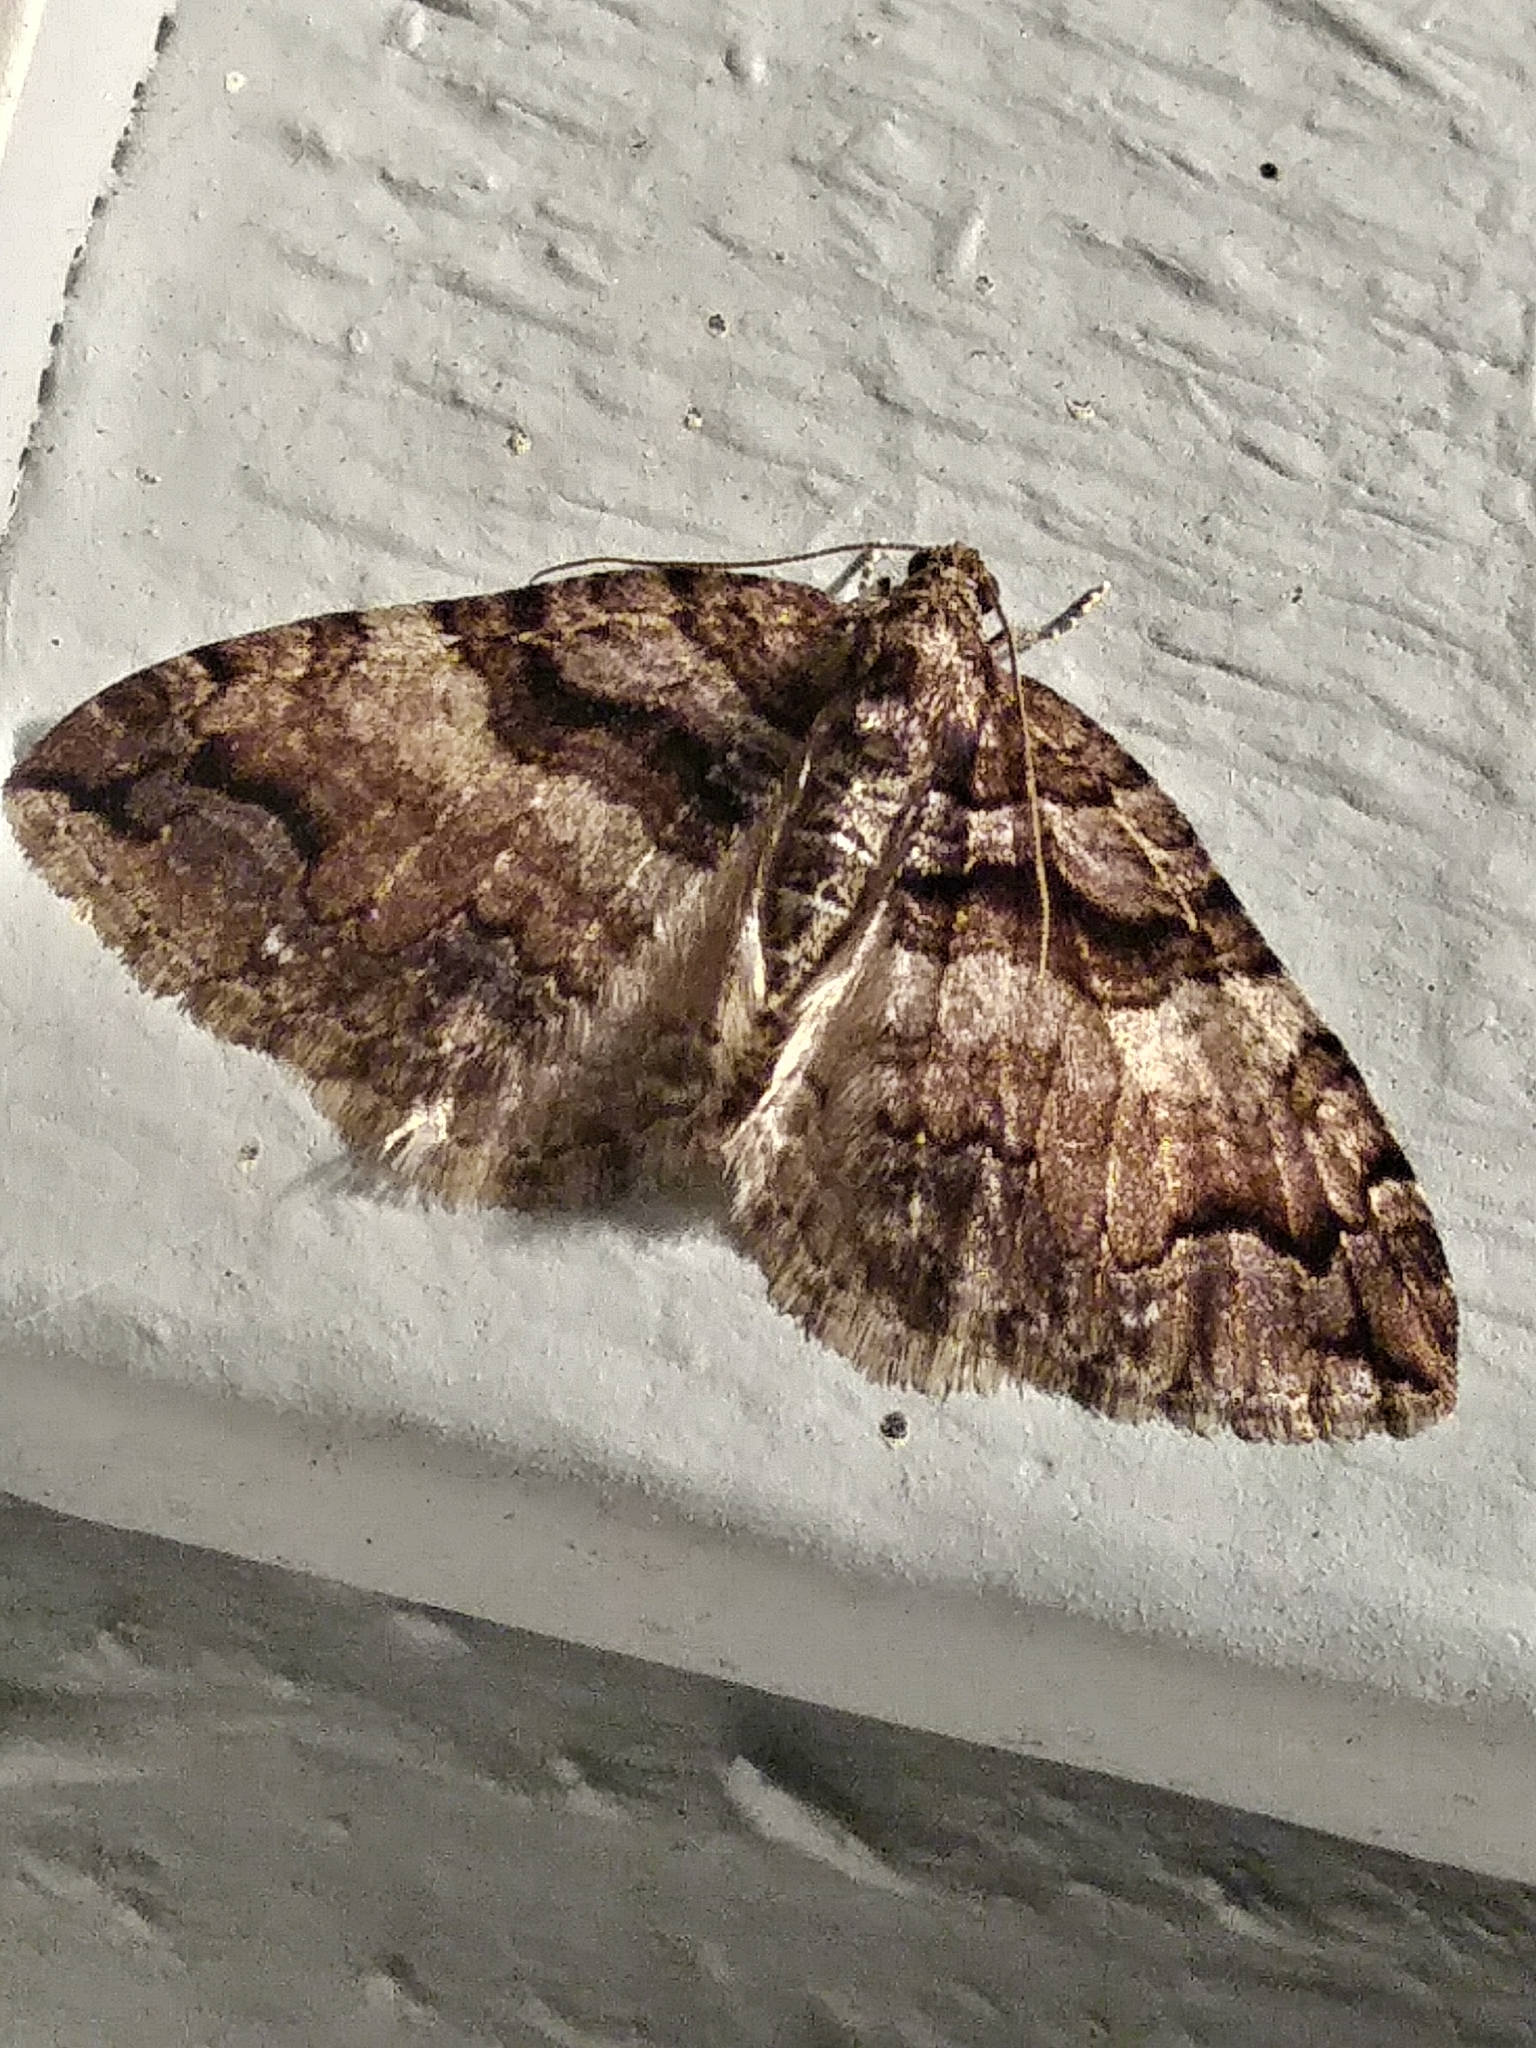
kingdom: Animalia
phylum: Arthropoda
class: Insecta
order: Lepidoptera
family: Geometridae
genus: Anticlea
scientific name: Anticlea vasiliata
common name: Variable carpet
